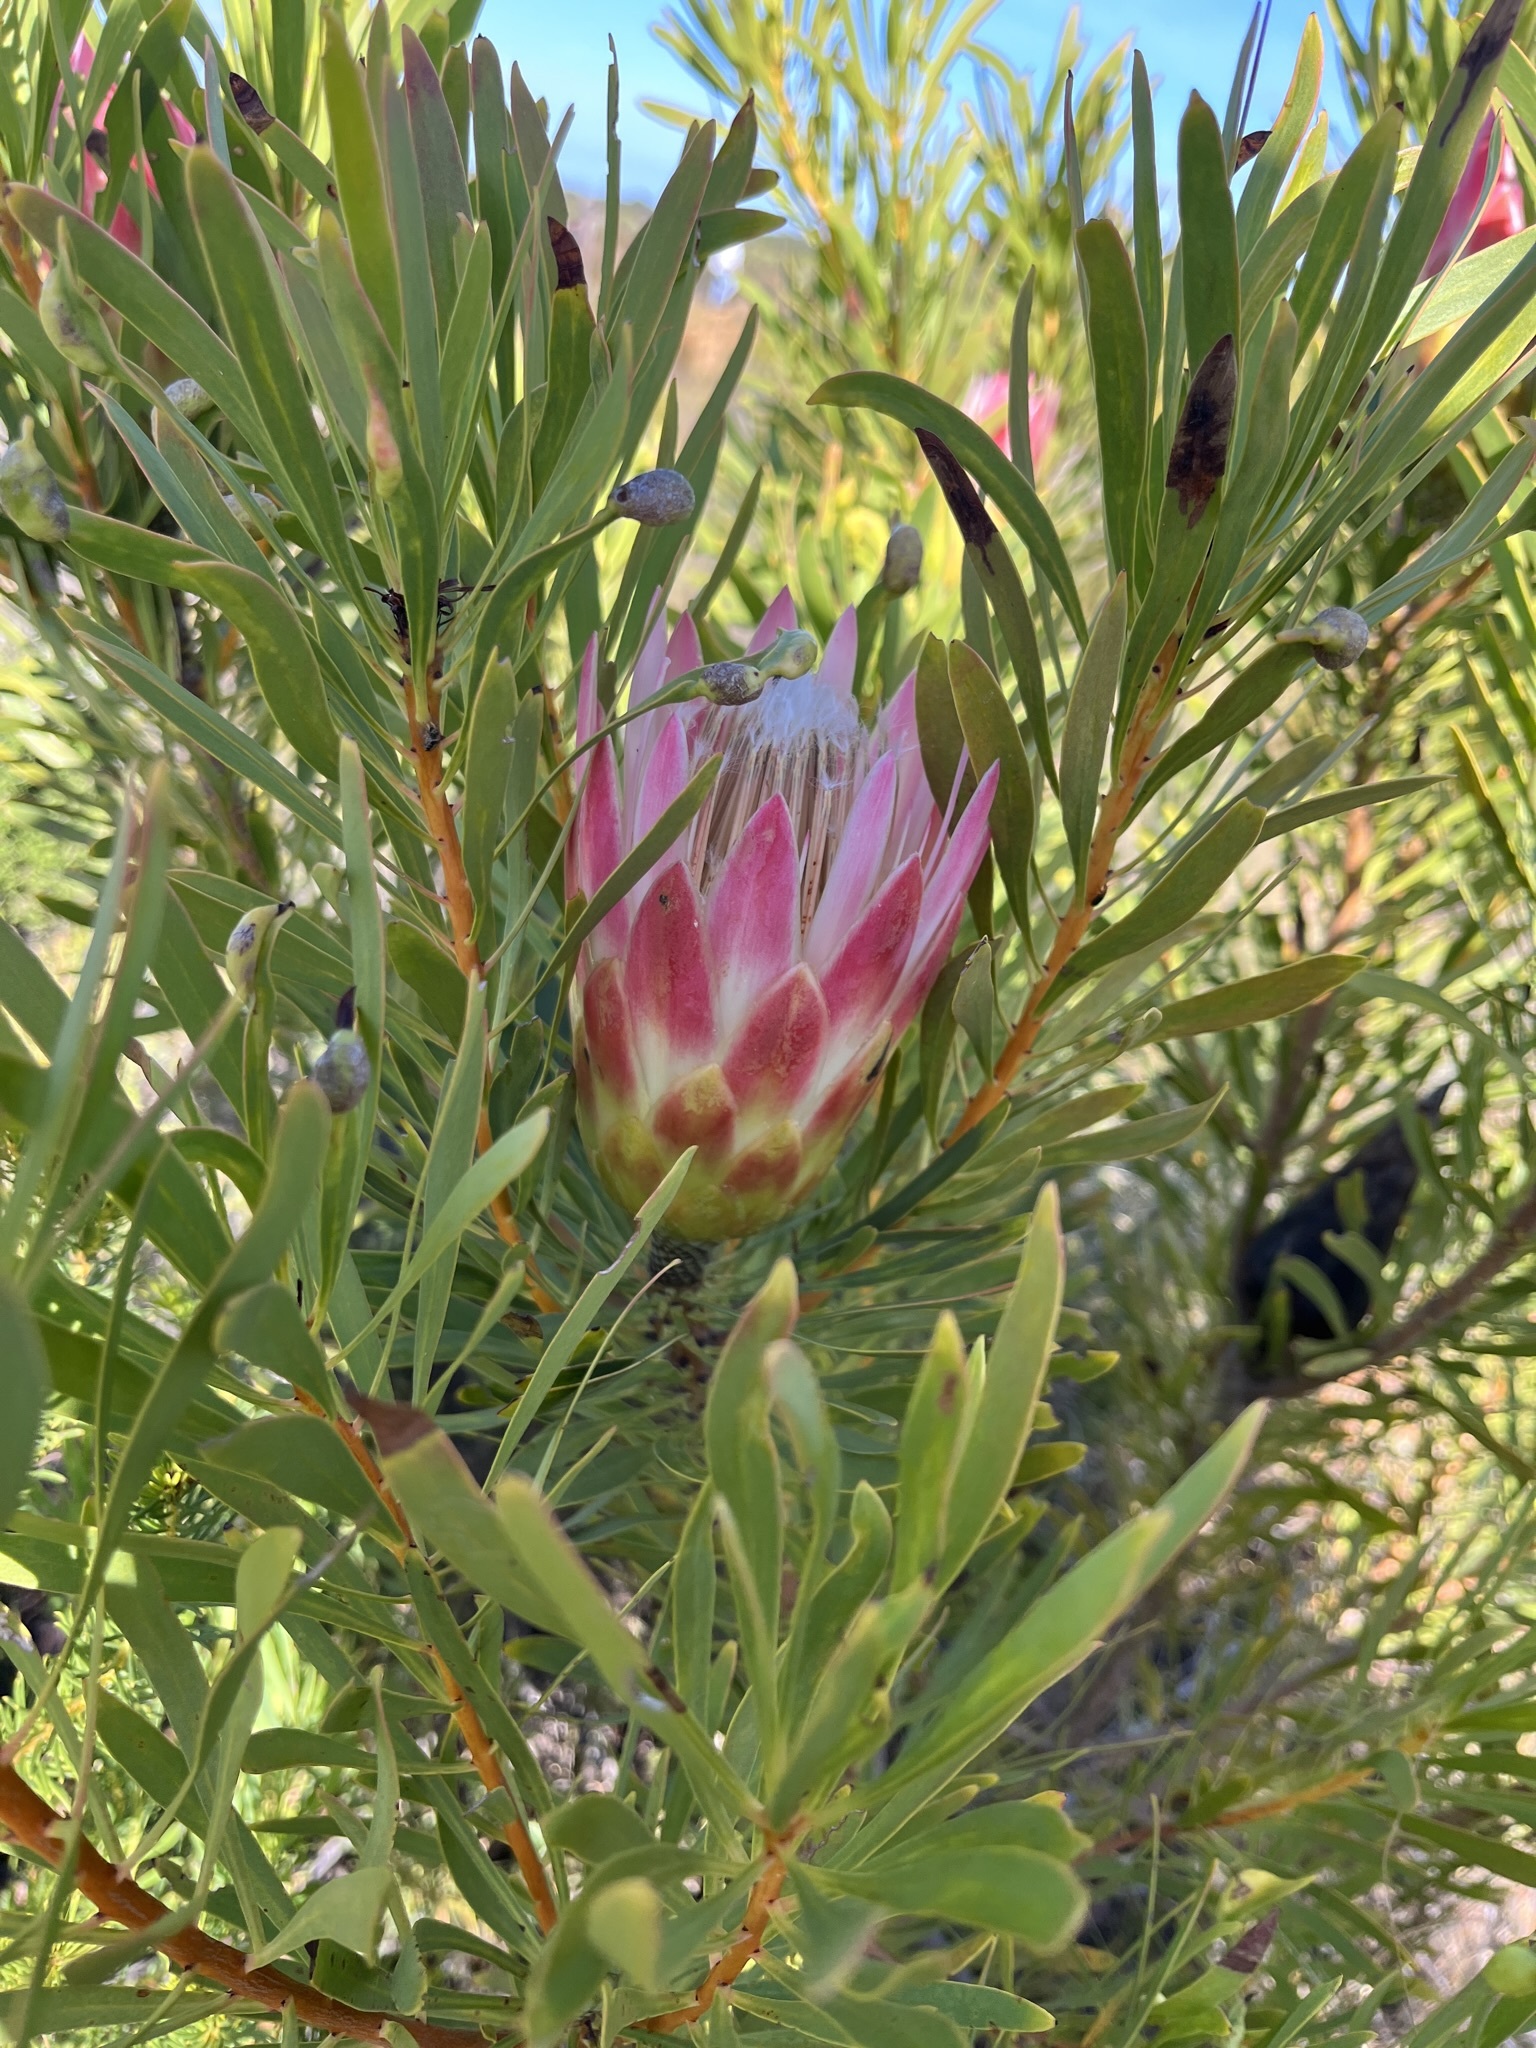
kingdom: Plantae
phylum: Tracheophyta
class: Magnoliopsida
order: Proteales
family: Proteaceae
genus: Protea
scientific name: Protea repens
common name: Sugarbush
